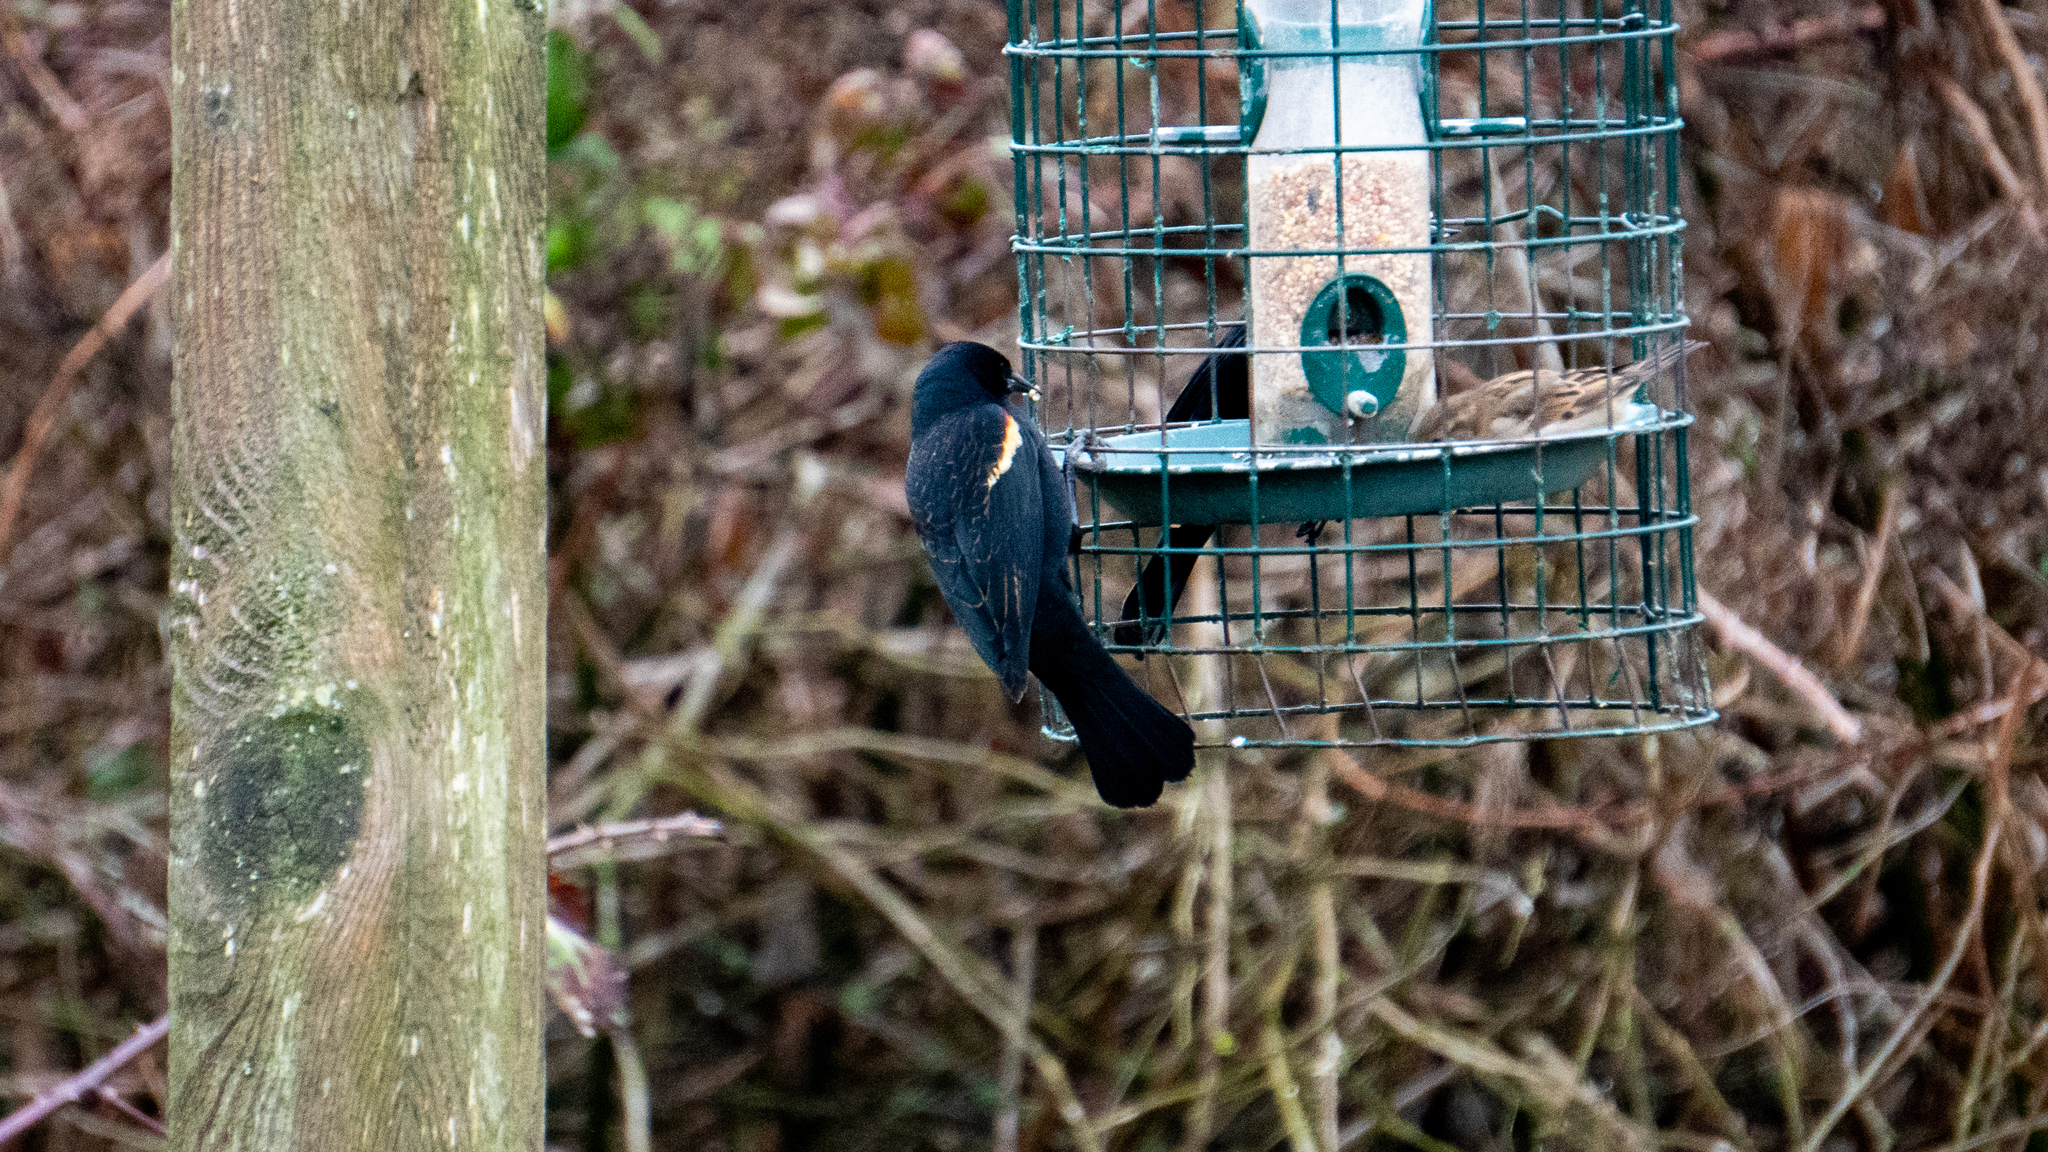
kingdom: Animalia
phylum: Chordata
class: Aves
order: Passeriformes
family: Icteridae
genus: Agelaius
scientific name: Agelaius phoeniceus
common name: Red-winged blackbird
